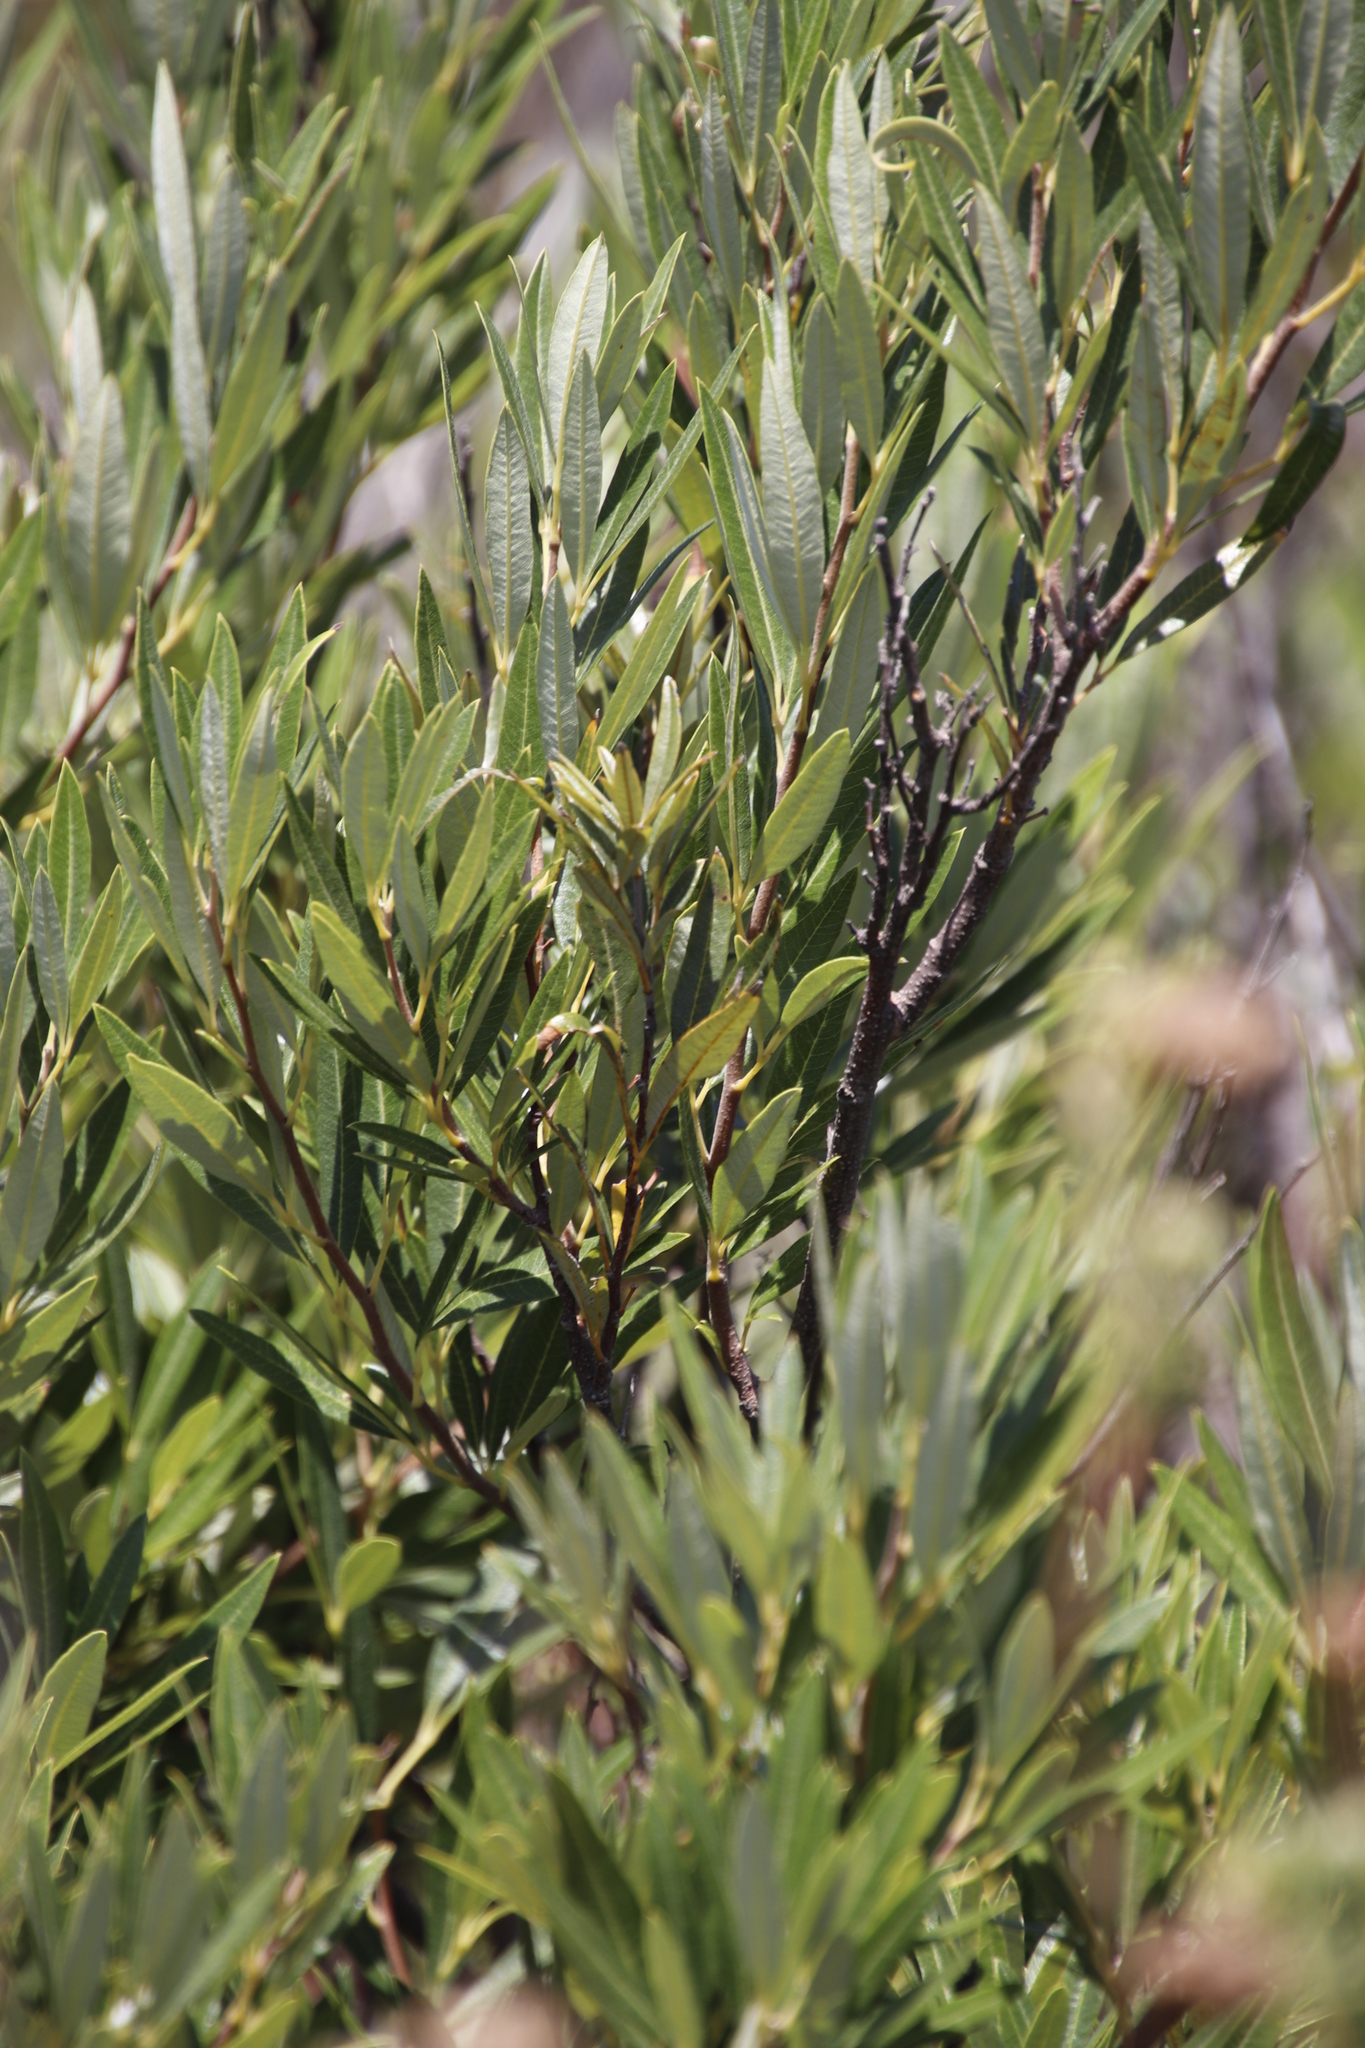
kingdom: Plantae
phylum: Tracheophyta
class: Magnoliopsida
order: Sapindales
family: Anacardiaceae
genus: Searsia
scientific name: Searsia angustifolia
